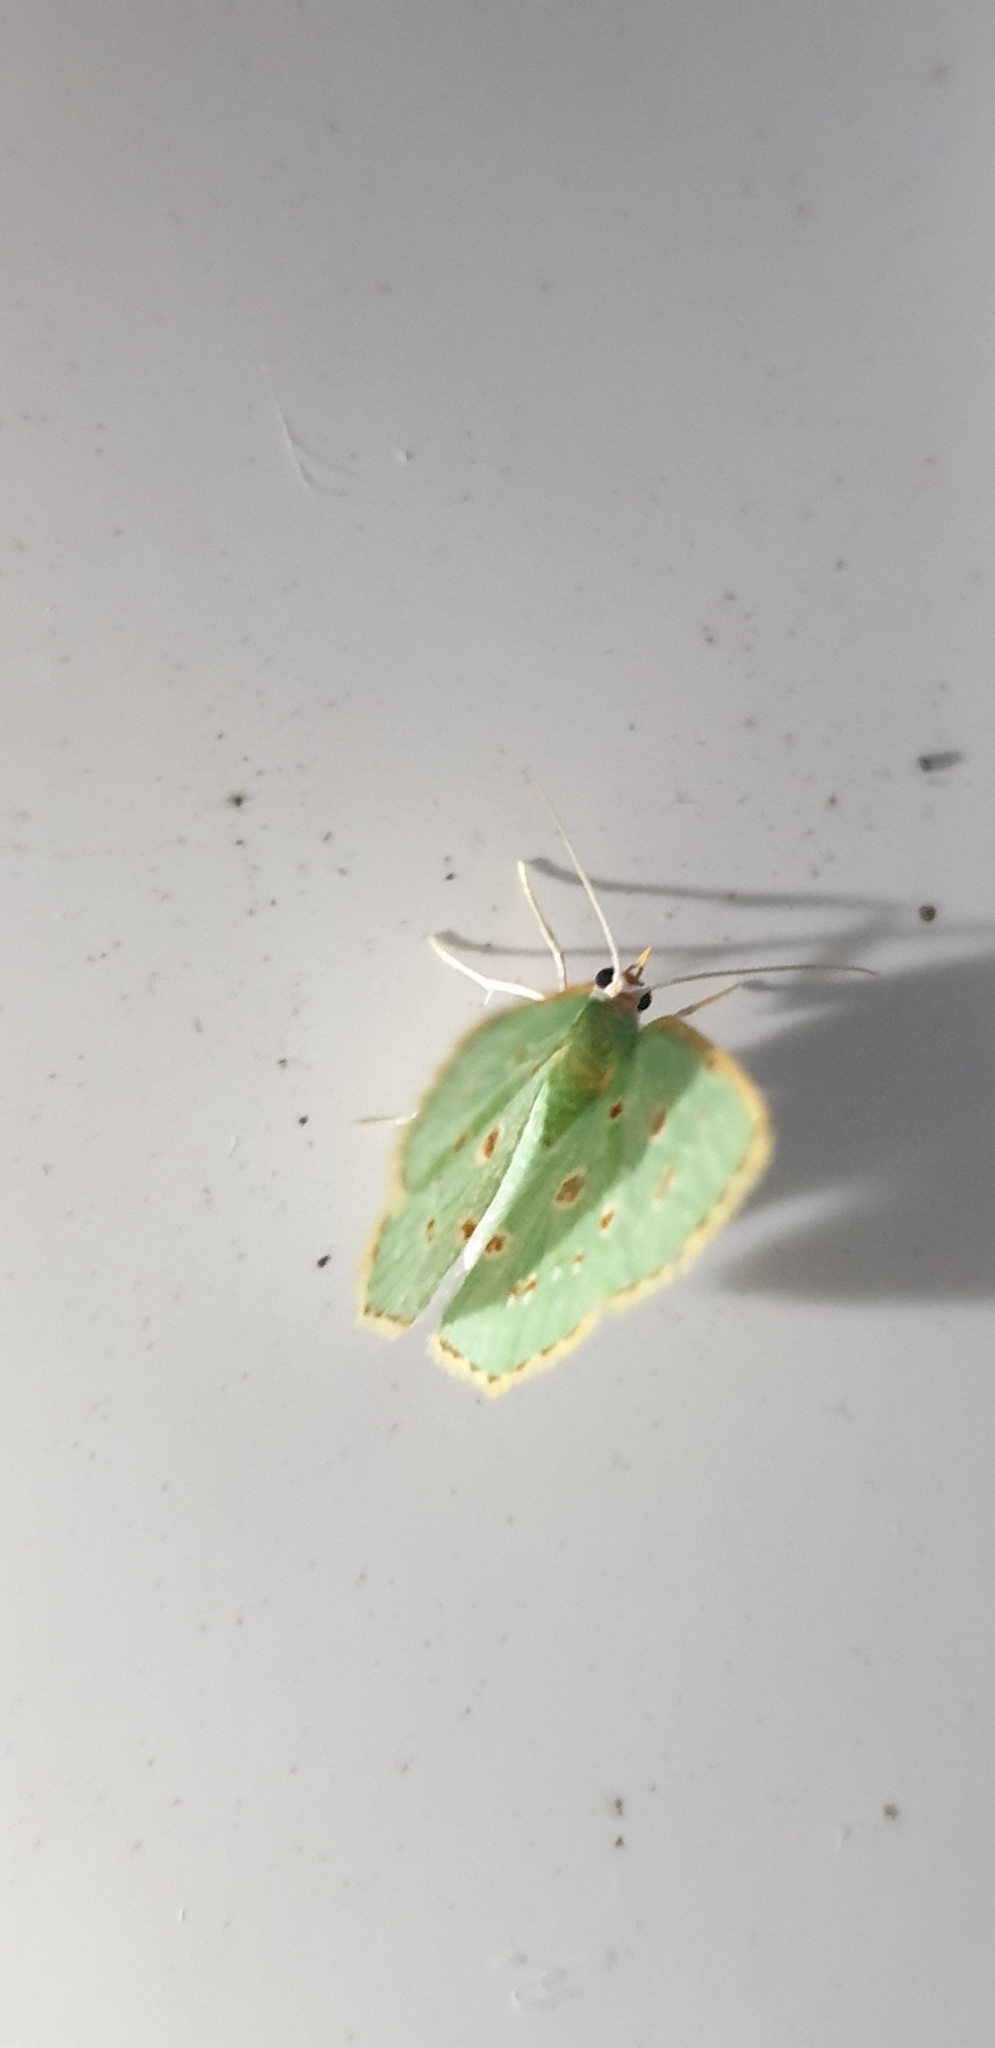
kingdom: Animalia
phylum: Arthropoda
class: Insecta
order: Lepidoptera
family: Geometridae
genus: Comostola
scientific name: Comostola laesaria
